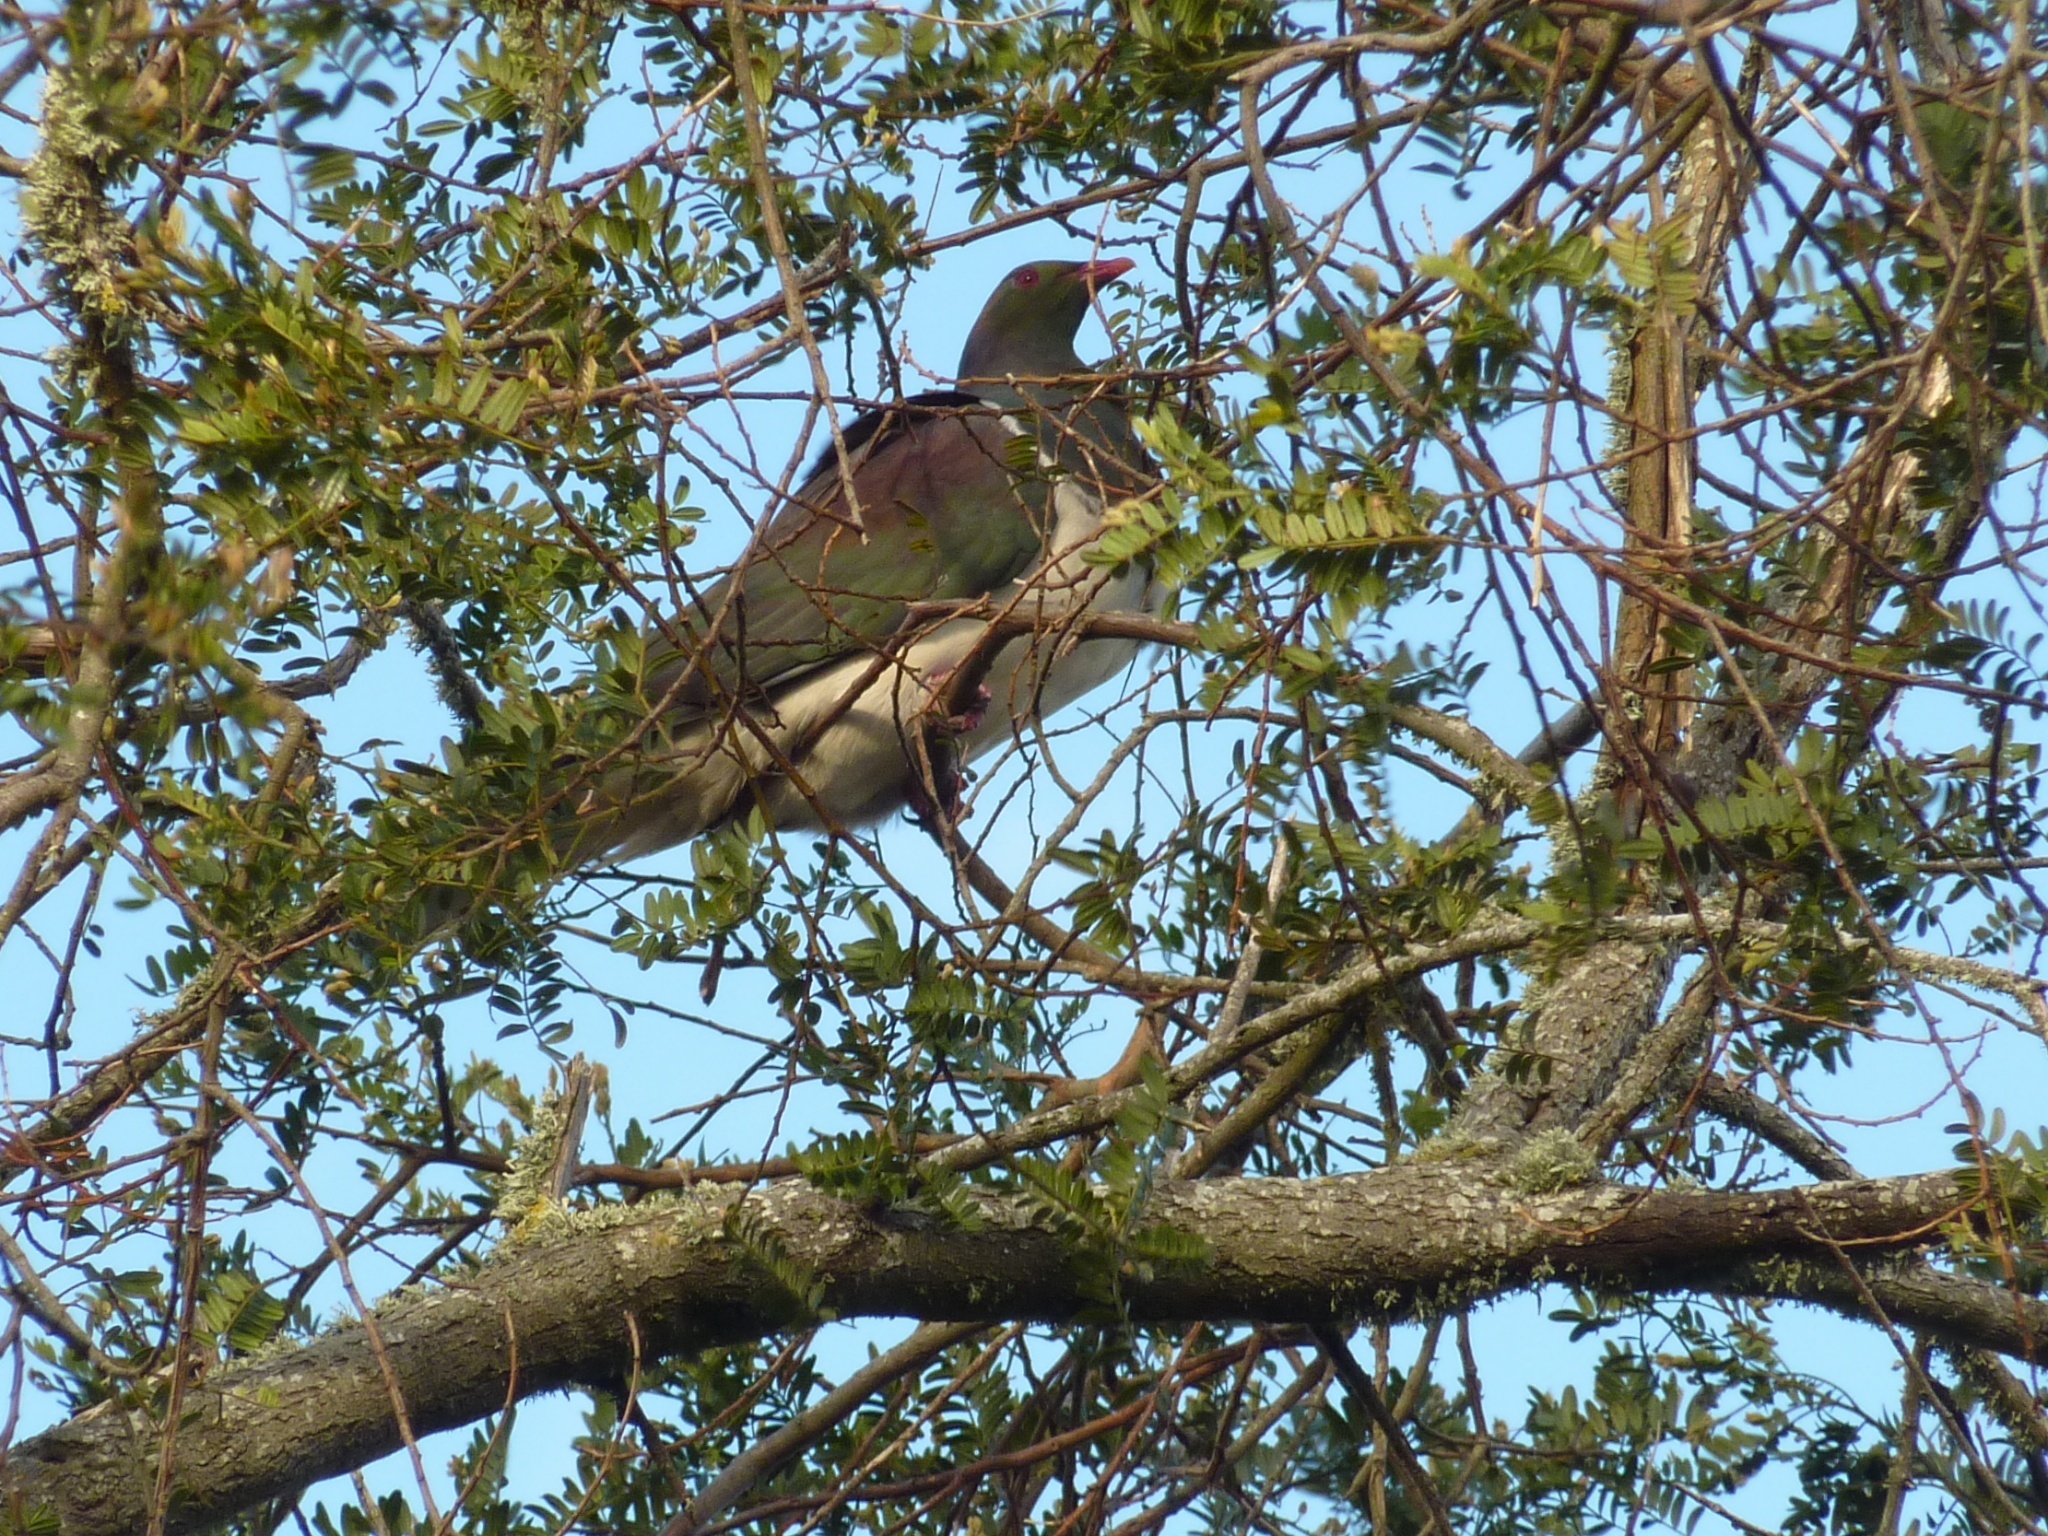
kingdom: Animalia
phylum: Chordata
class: Aves
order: Columbiformes
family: Columbidae
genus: Hemiphaga
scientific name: Hemiphaga novaeseelandiae
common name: New zealand pigeon
